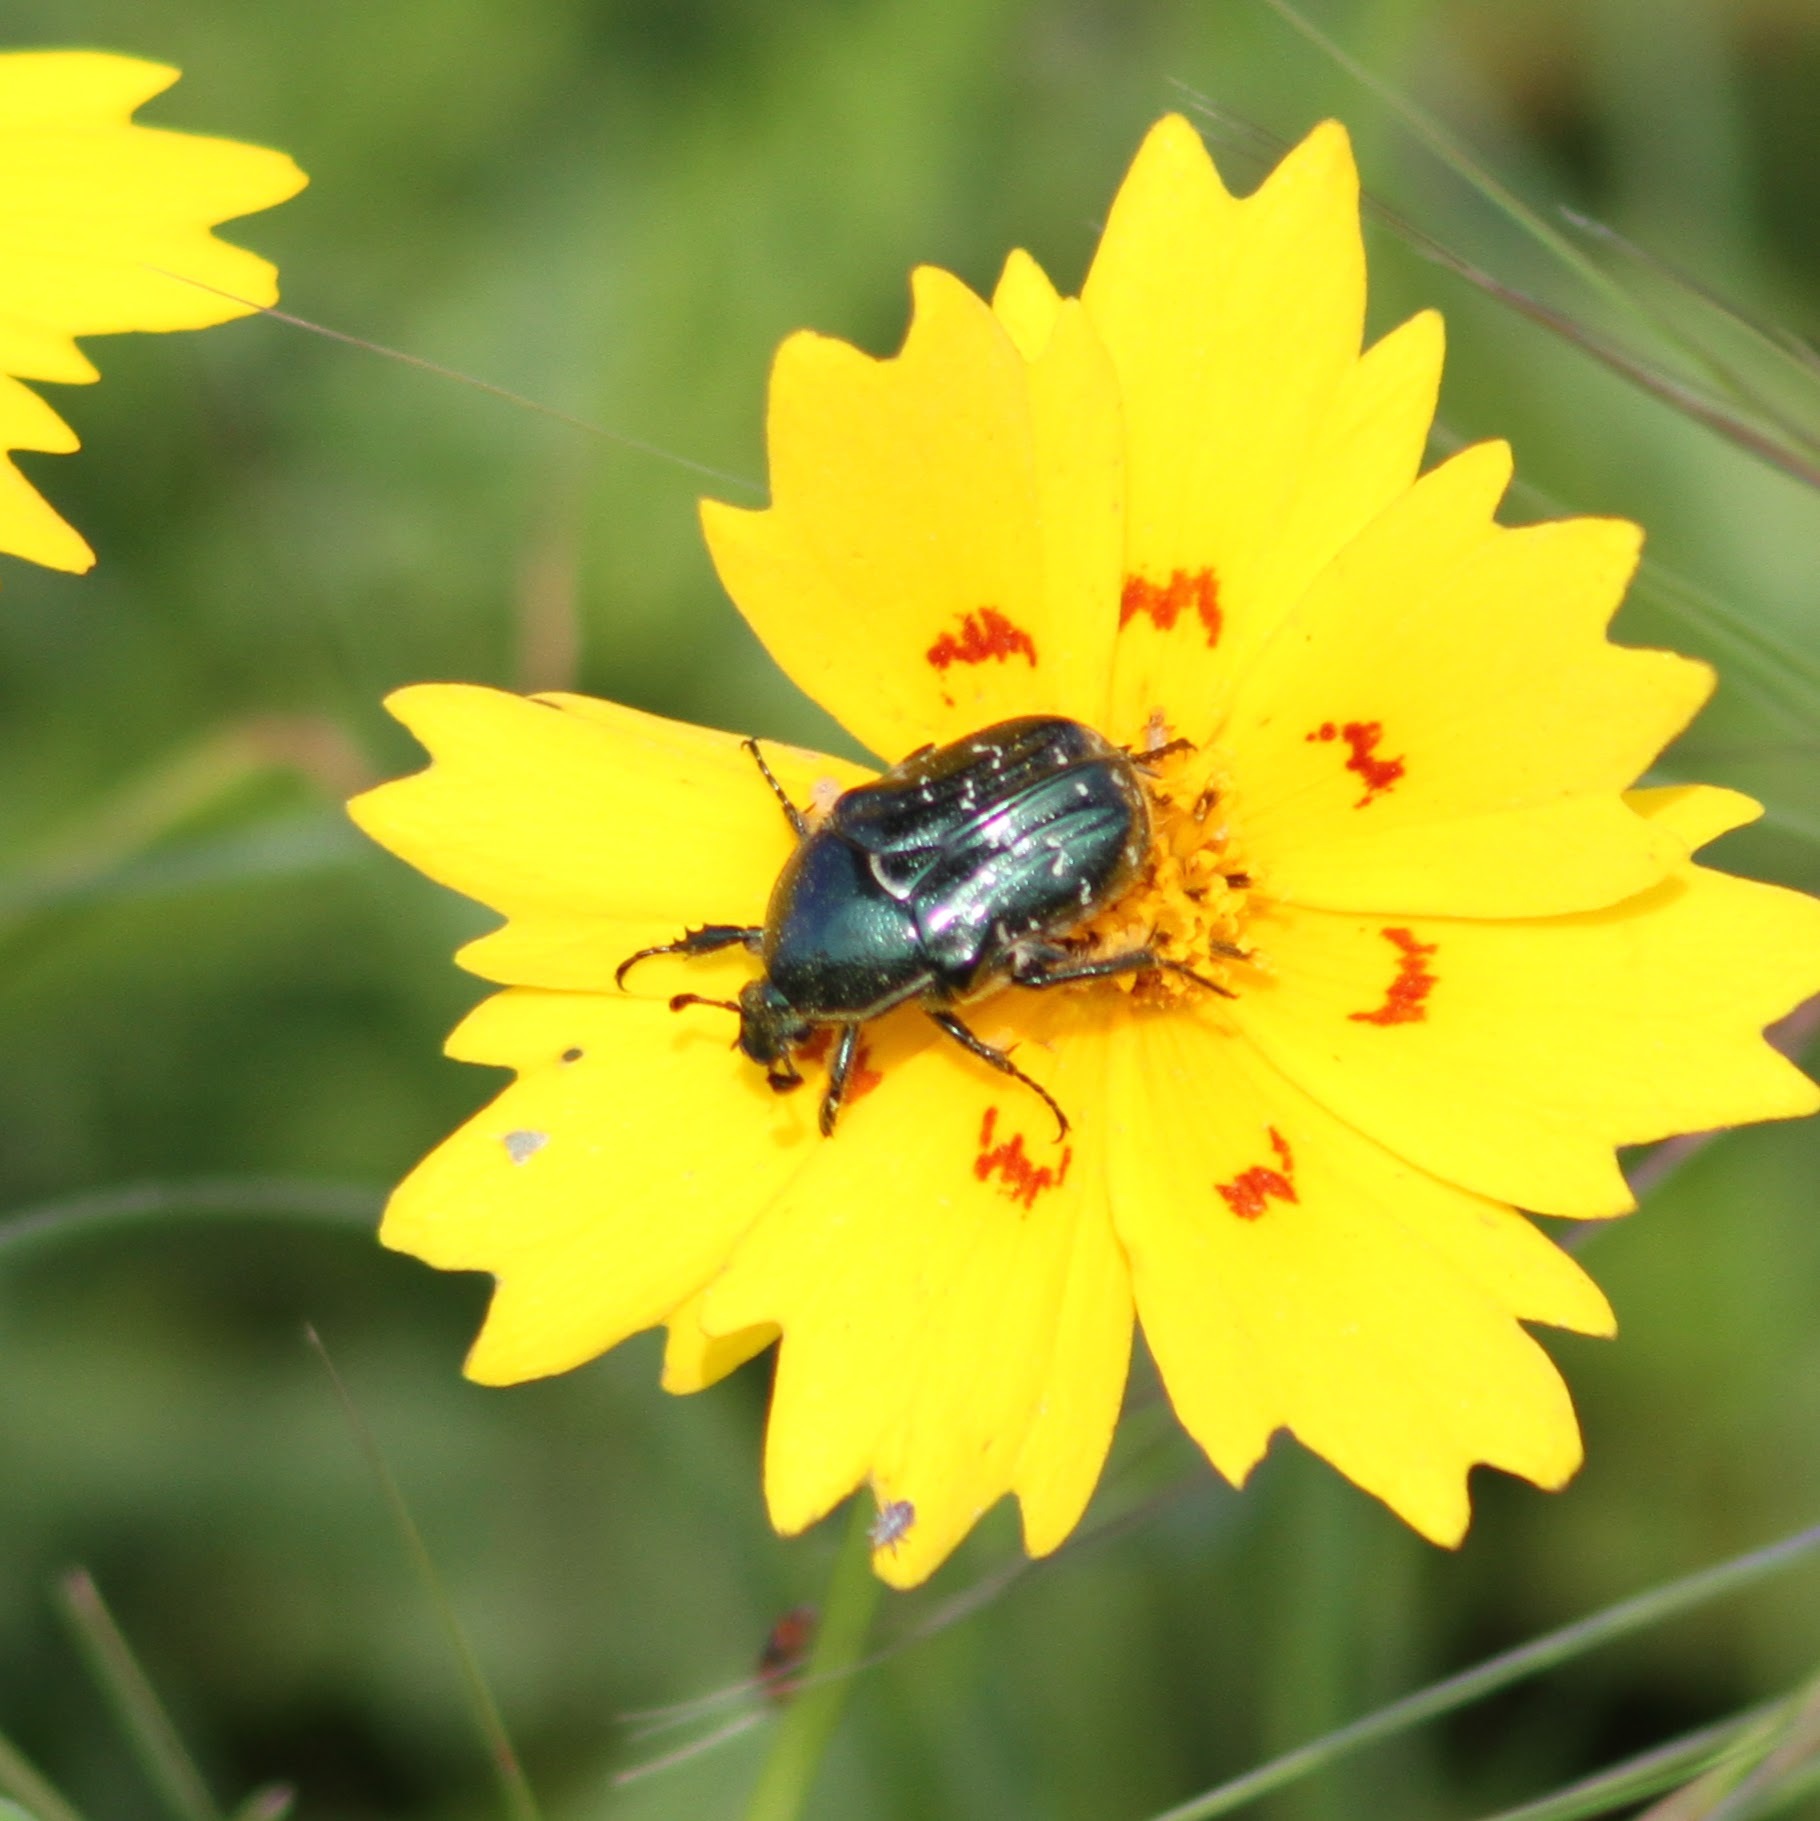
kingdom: Animalia
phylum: Arthropoda
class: Insecta
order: Coleoptera
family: Scarabaeidae
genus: Euphoria
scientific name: Euphoria sepulcralis
